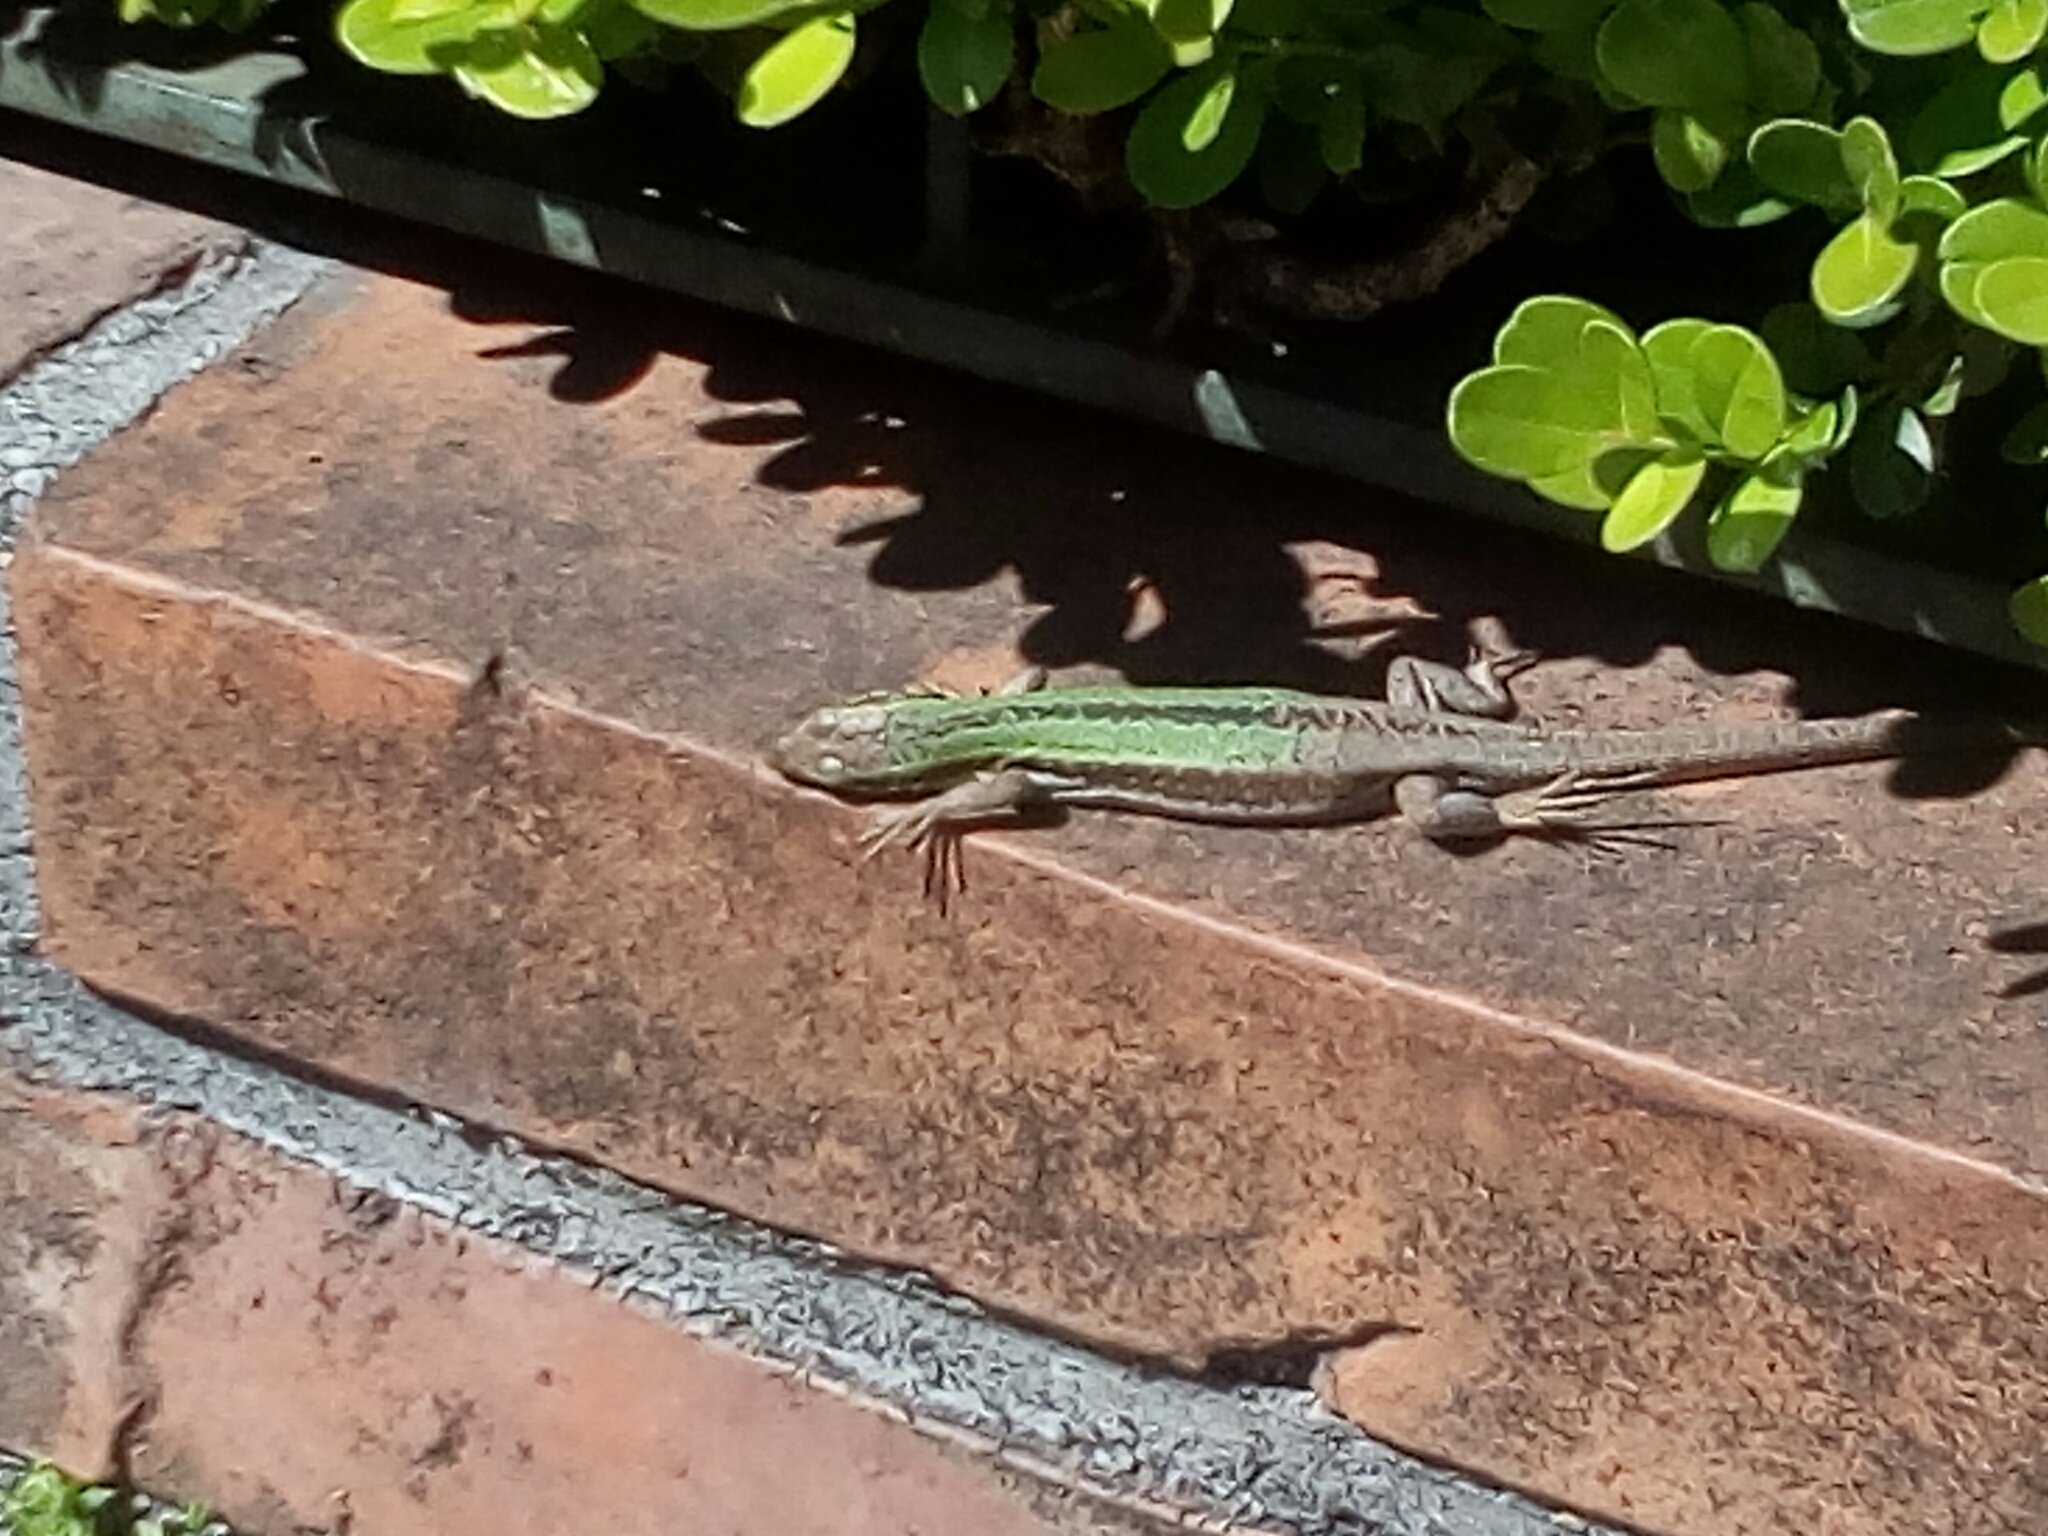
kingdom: Animalia
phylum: Chordata
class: Squamata
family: Lacertidae
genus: Podarcis
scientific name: Podarcis siculus
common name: Italian wall lizard
